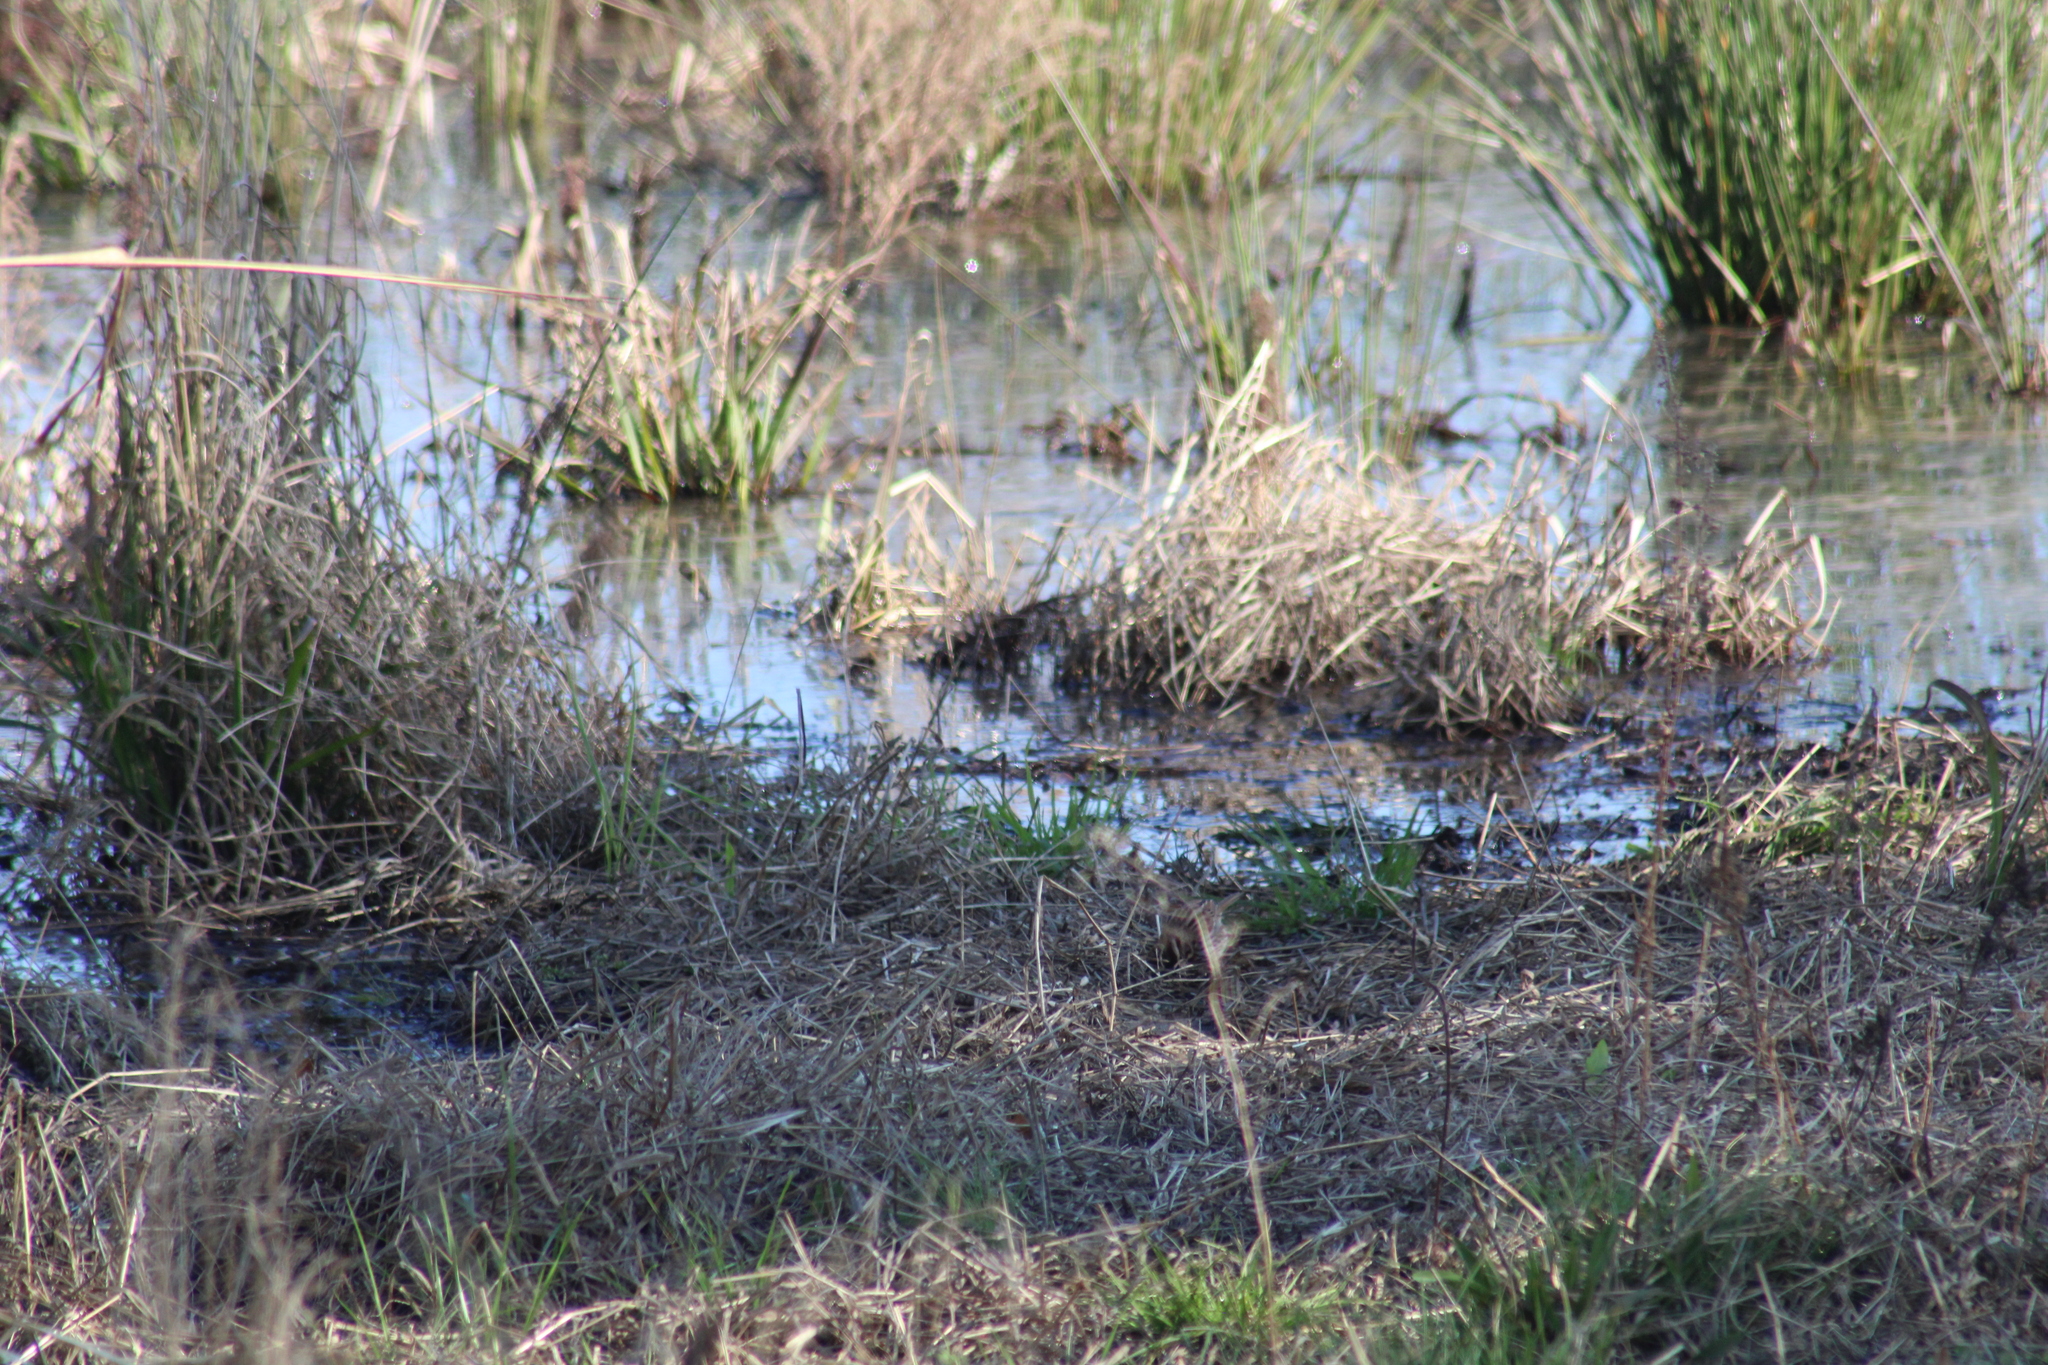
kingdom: Animalia
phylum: Chordata
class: Aves
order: Passeriformes
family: Passerellidae
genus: Melospiza
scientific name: Melospiza melodia
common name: Song sparrow
